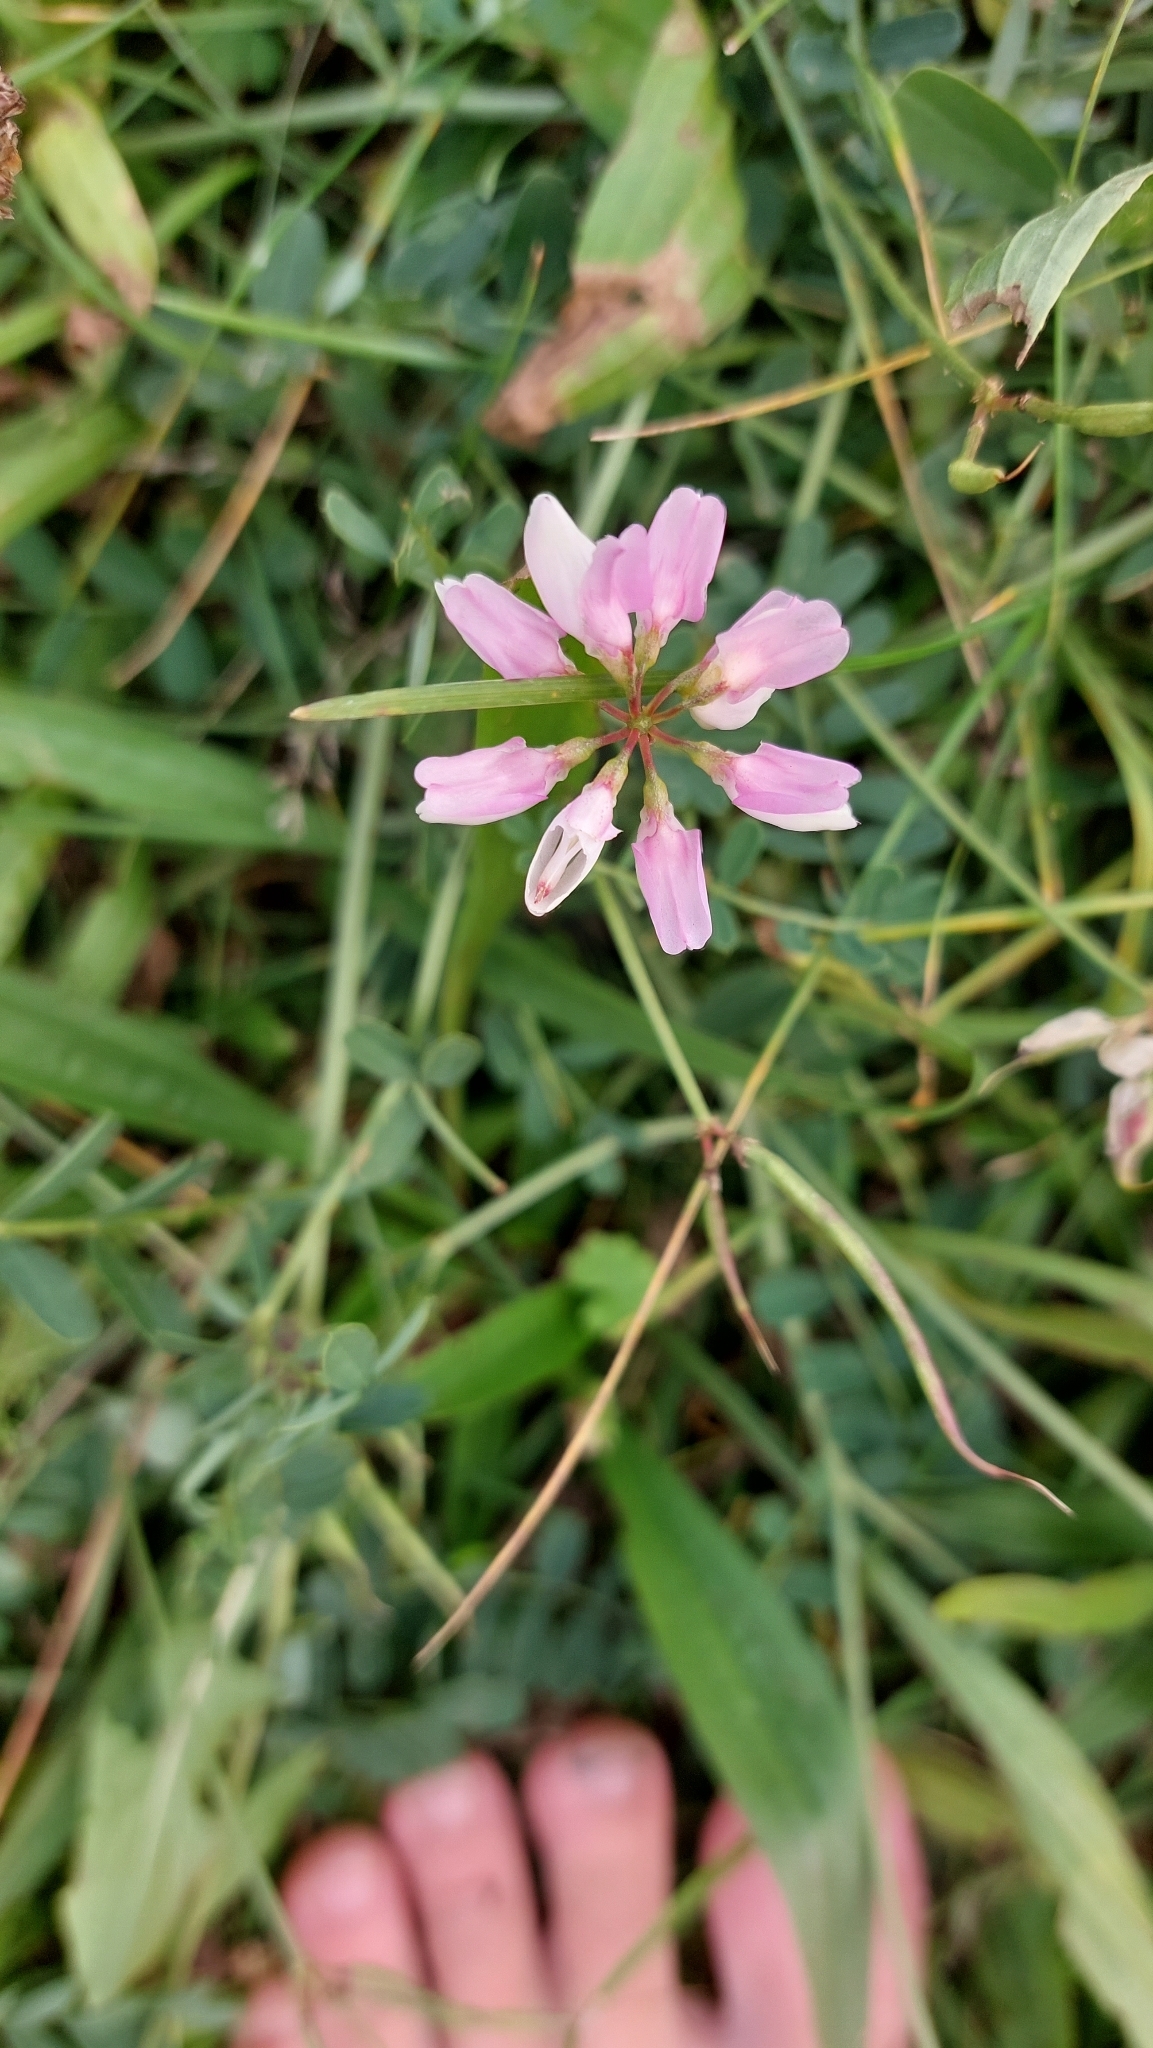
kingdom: Plantae
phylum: Tracheophyta
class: Magnoliopsida
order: Fabales
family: Fabaceae
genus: Coronilla
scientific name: Coronilla varia
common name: Crownvetch
